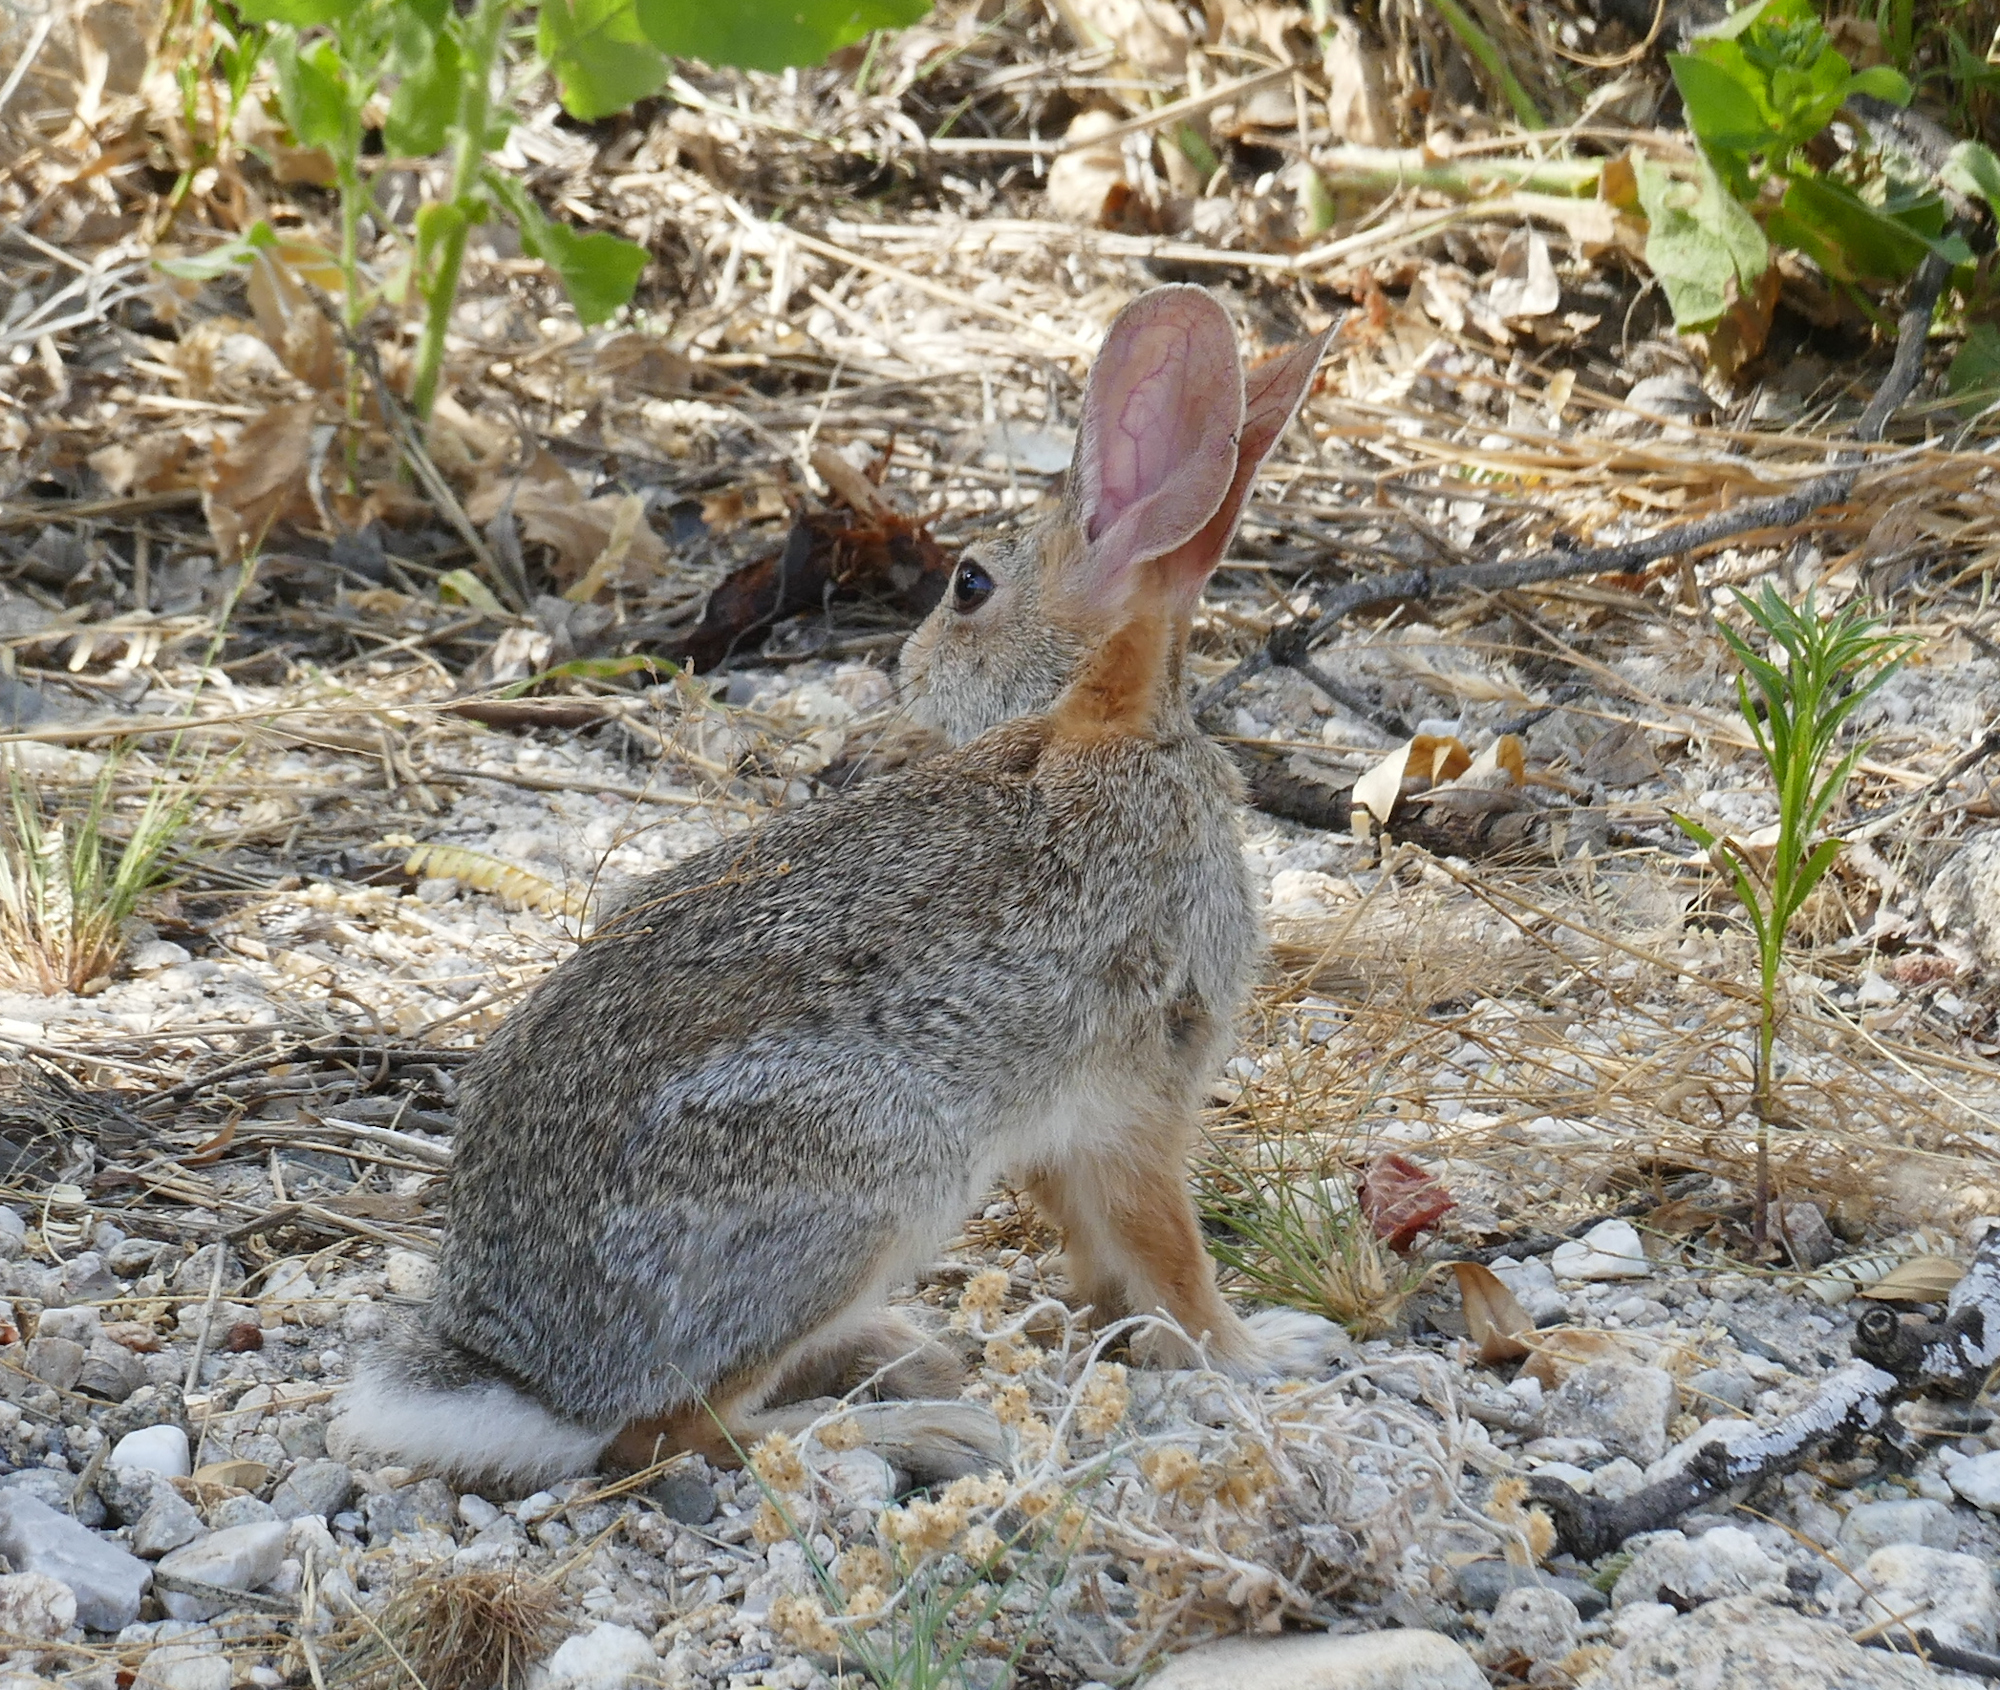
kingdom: Animalia
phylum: Chordata
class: Mammalia
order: Lagomorpha
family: Leporidae
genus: Sylvilagus
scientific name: Sylvilagus audubonii
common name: Desert cottontail
